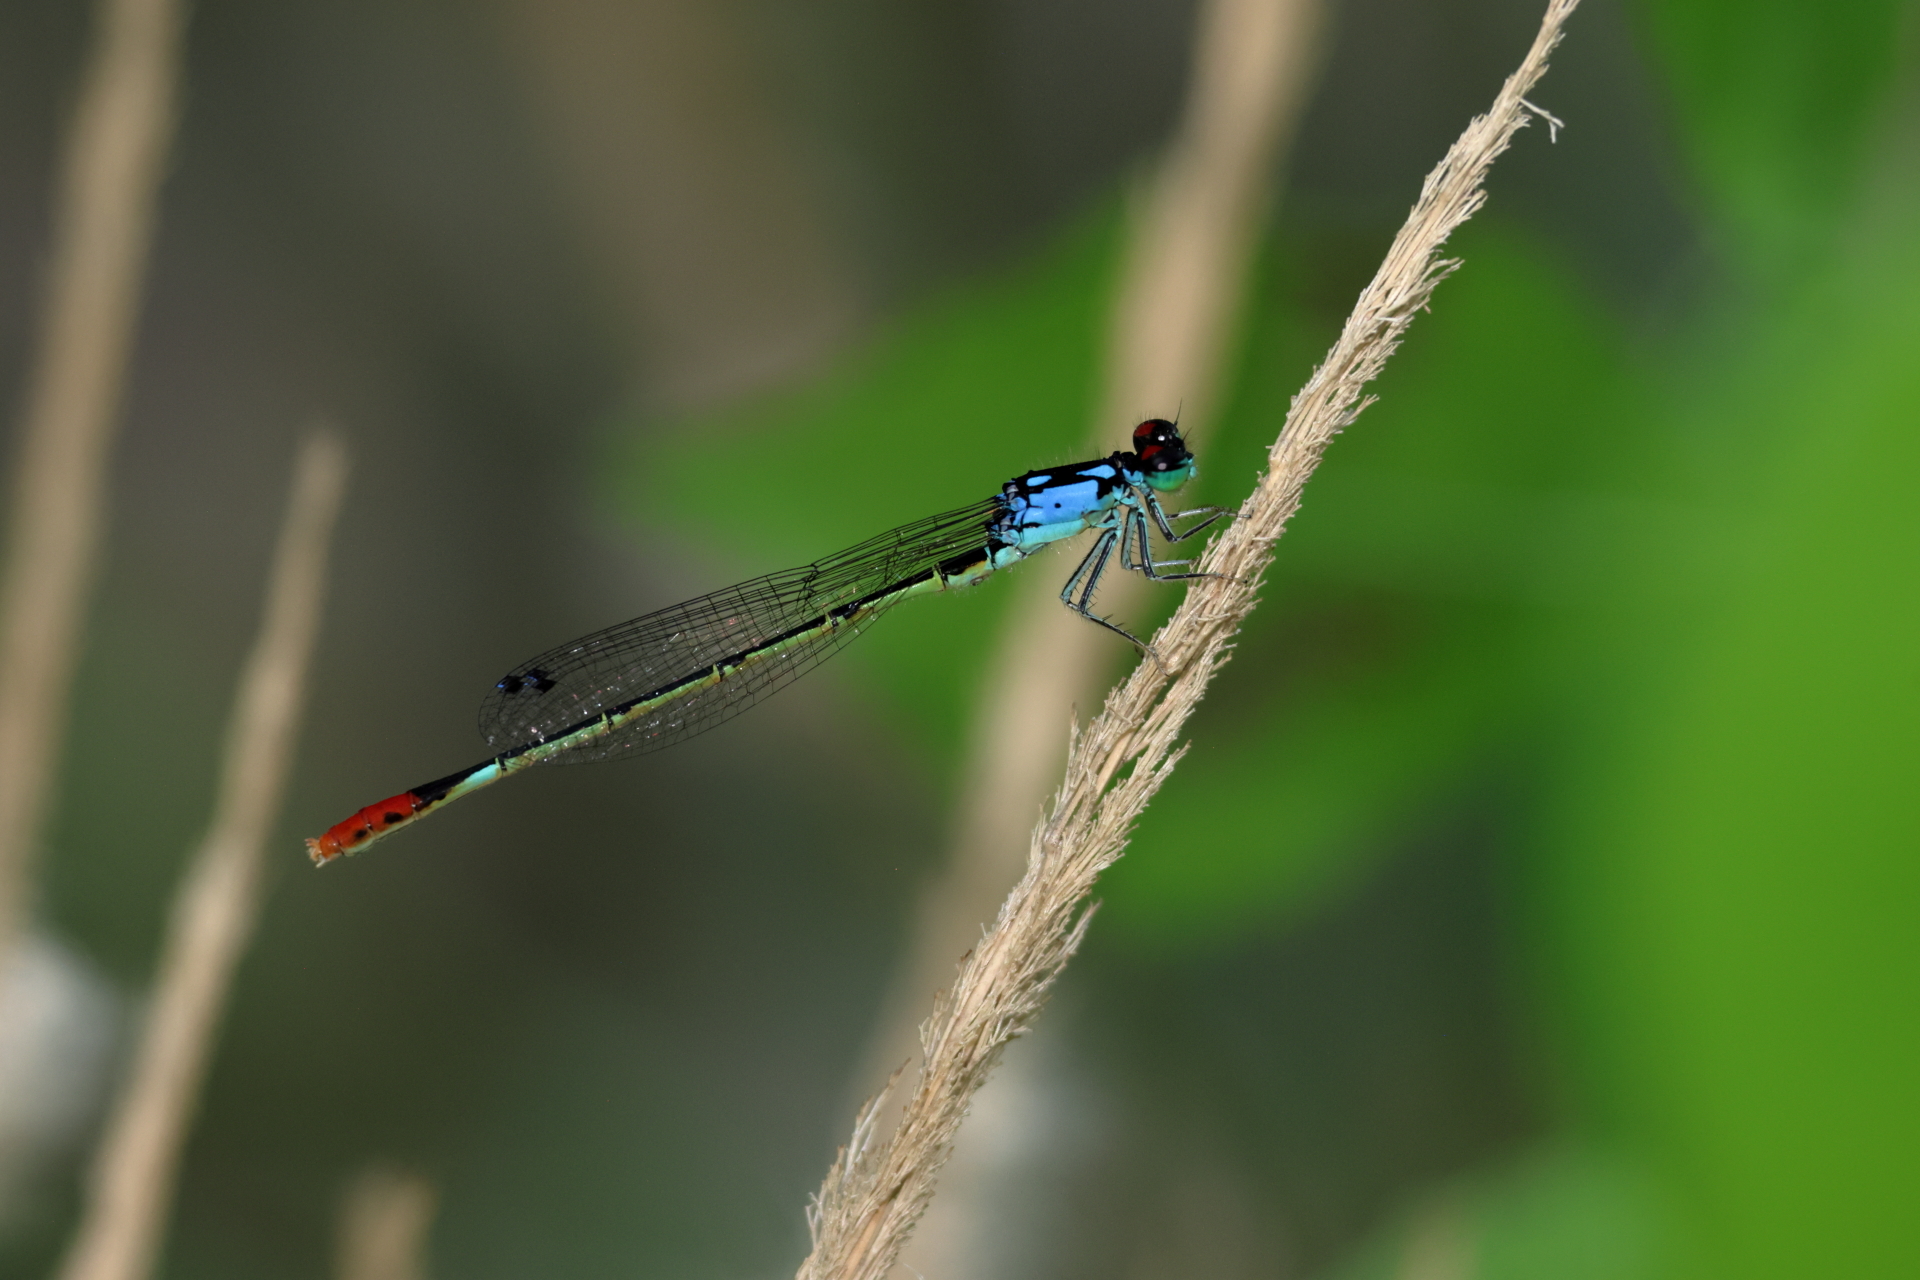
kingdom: Animalia
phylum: Arthropoda
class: Insecta
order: Odonata
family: Coenagrionidae
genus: Hesperagrion
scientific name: Hesperagrion heterodoxum
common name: Painted damsel
